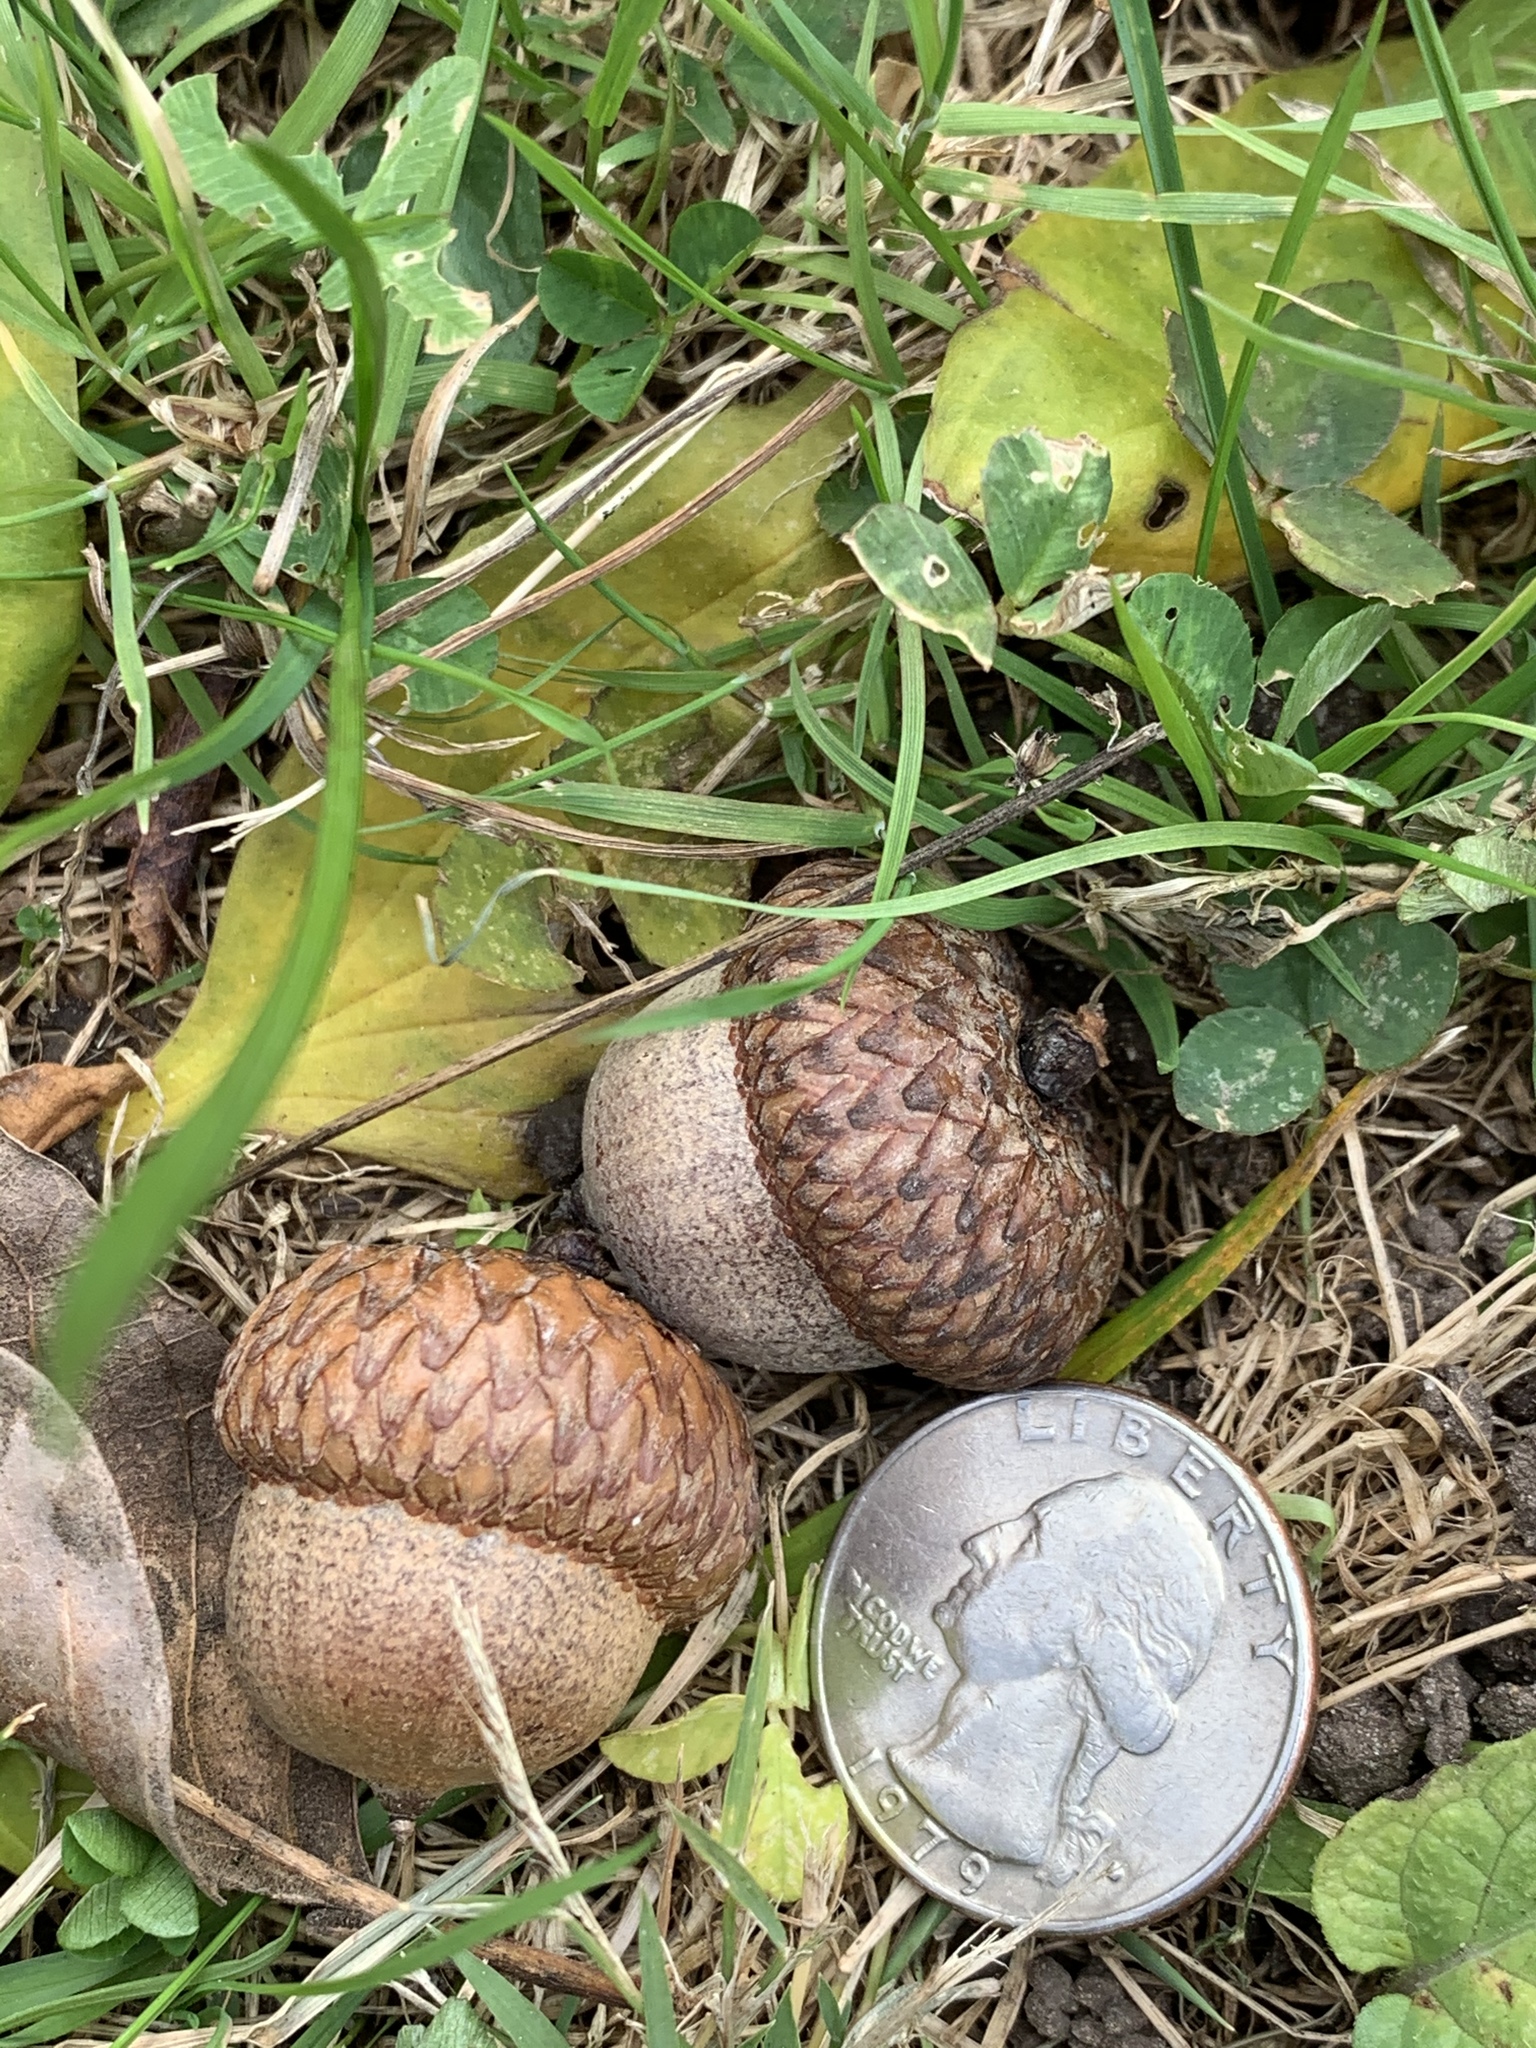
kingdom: Plantae
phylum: Tracheophyta
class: Magnoliopsida
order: Fagales
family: Fagaceae
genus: Quercus
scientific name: Quercus rubra
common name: Red oak
